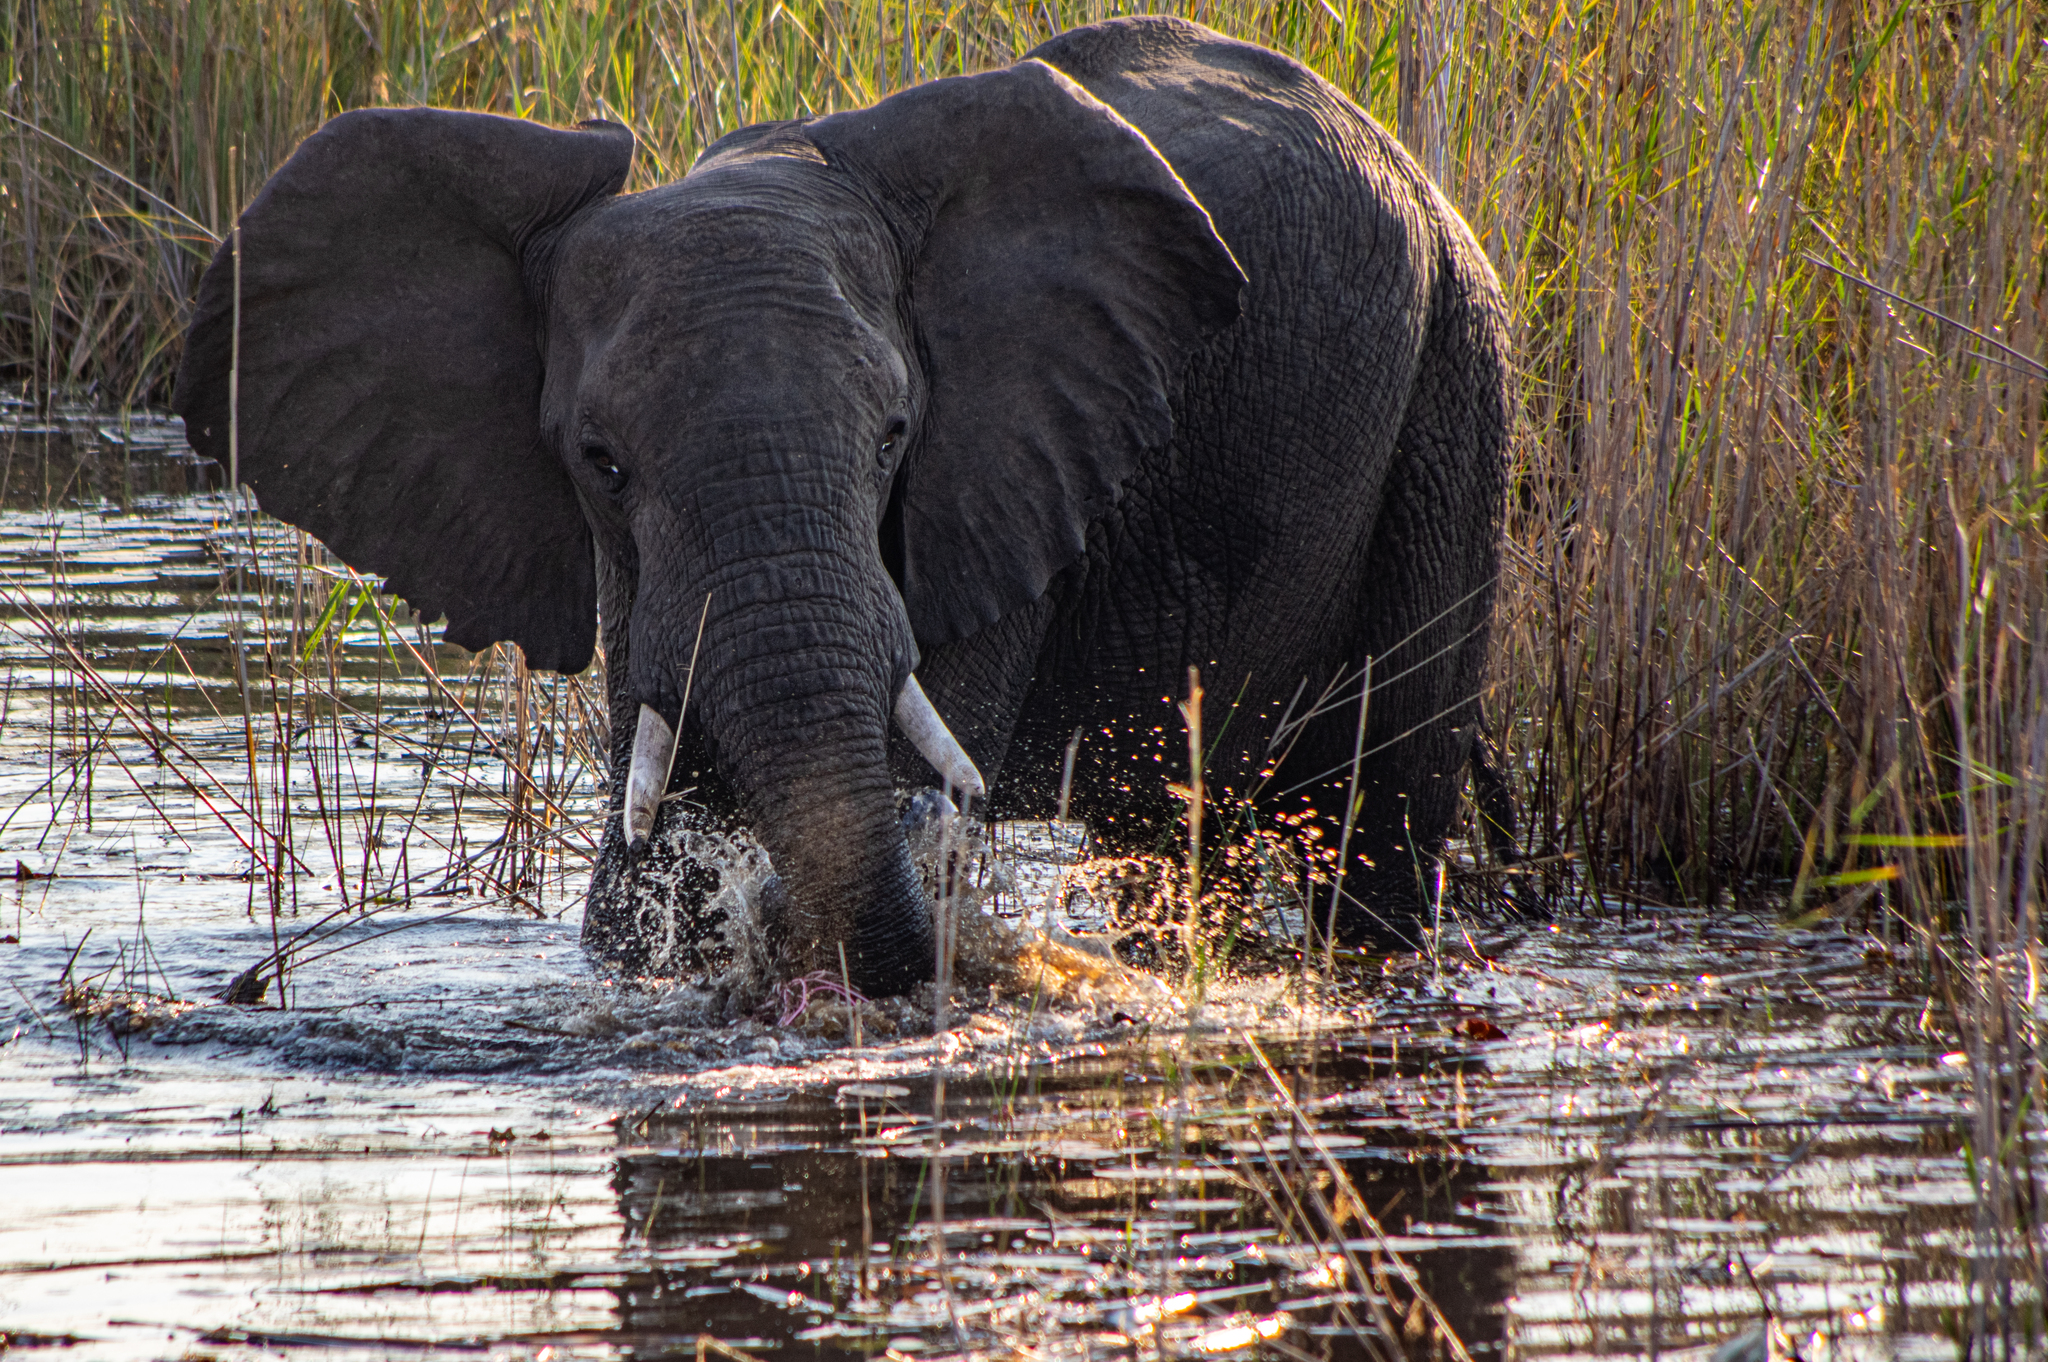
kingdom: Animalia
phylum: Chordata
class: Mammalia
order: Proboscidea
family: Elephantidae
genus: Loxodonta
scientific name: Loxodonta africana
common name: African elephant
